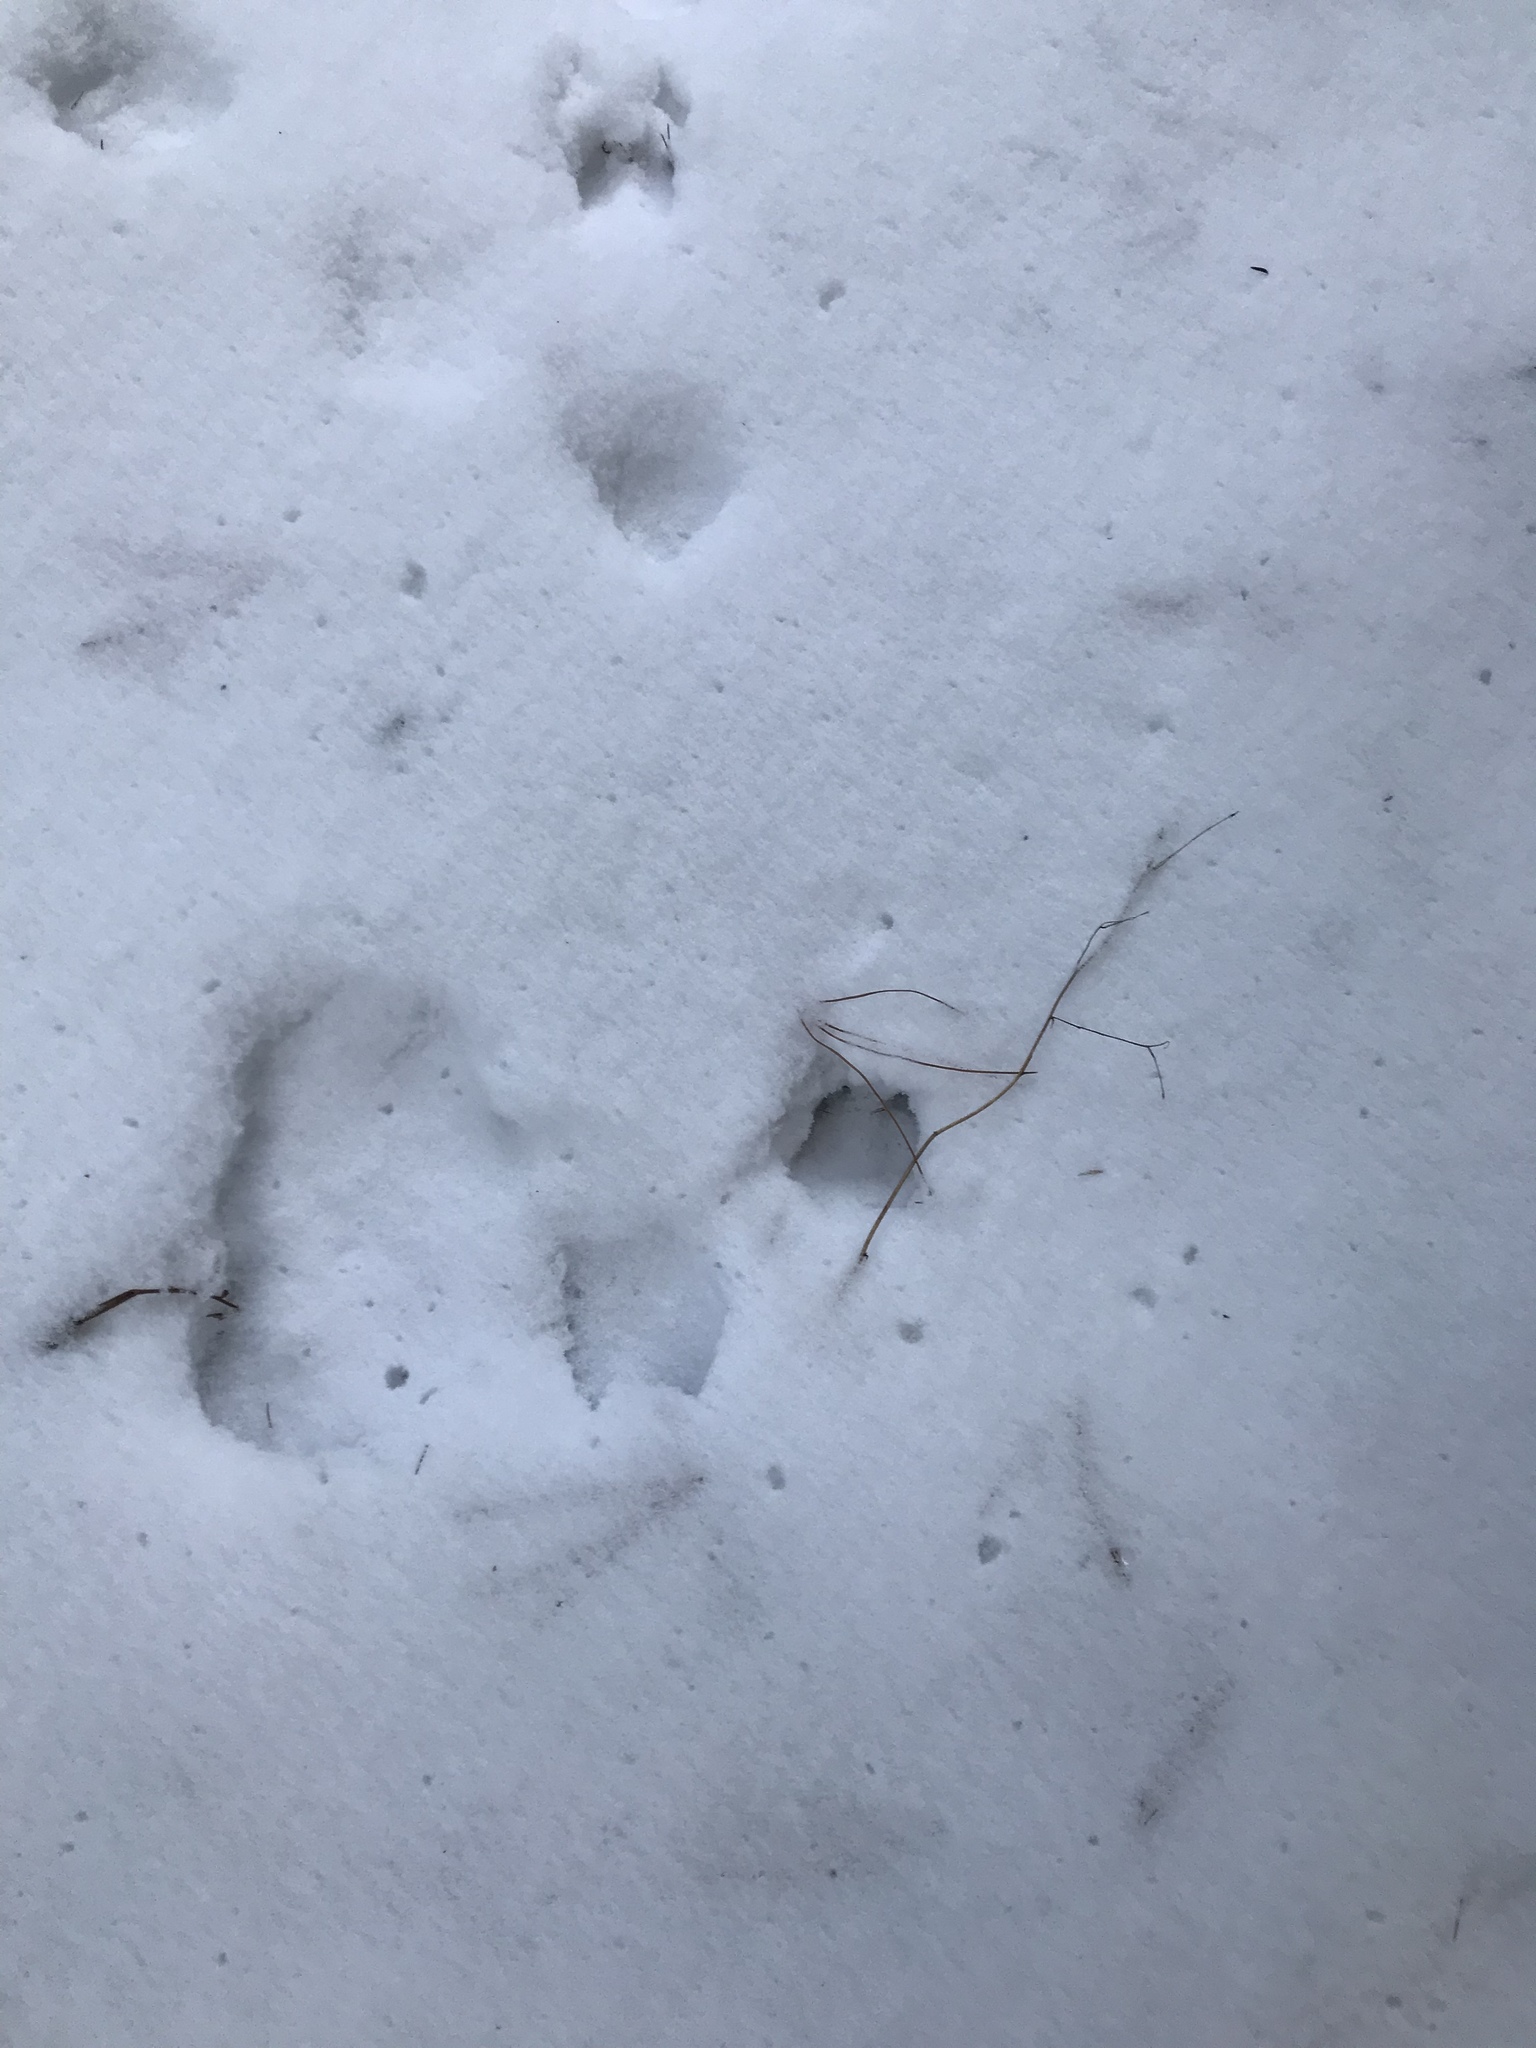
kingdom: Animalia
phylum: Chordata
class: Mammalia
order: Artiodactyla
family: Cervidae
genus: Odocoileus
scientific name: Odocoileus virginianus
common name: White-tailed deer
